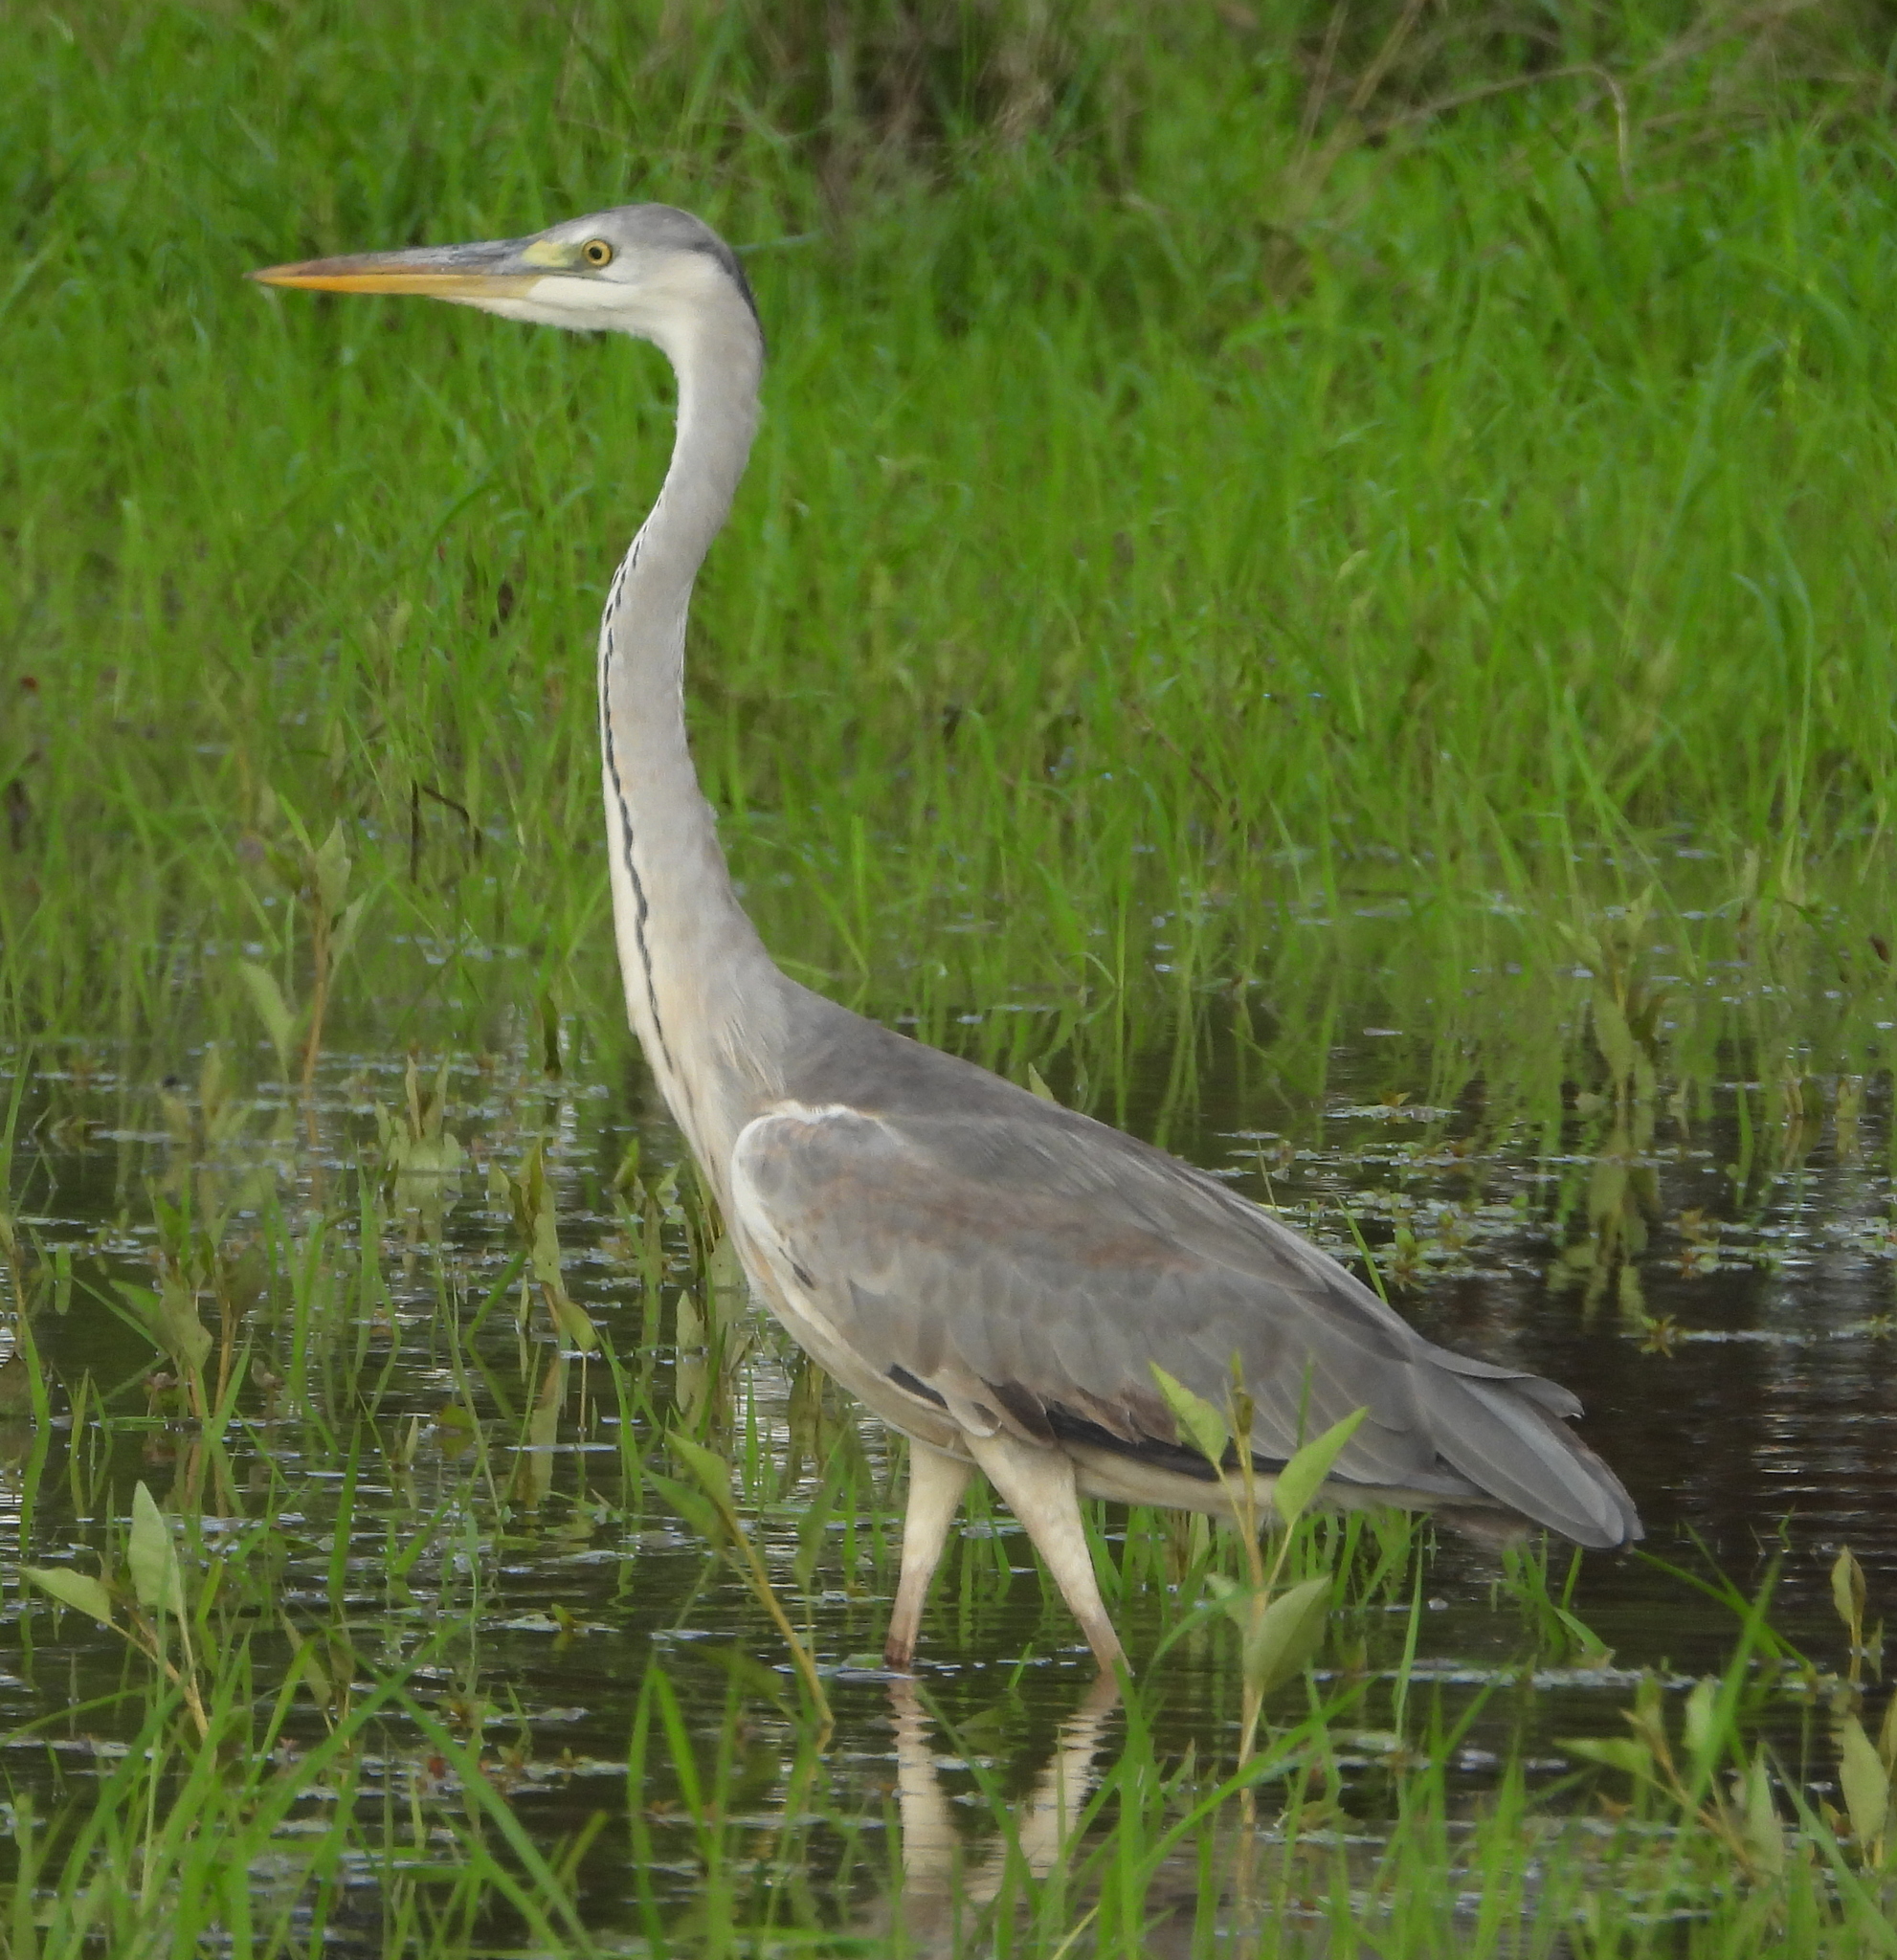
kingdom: Animalia
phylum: Chordata
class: Aves
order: Pelecaniformes
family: Ardeidae
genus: Ardea
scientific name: Ardea cinerea
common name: Grey heron
